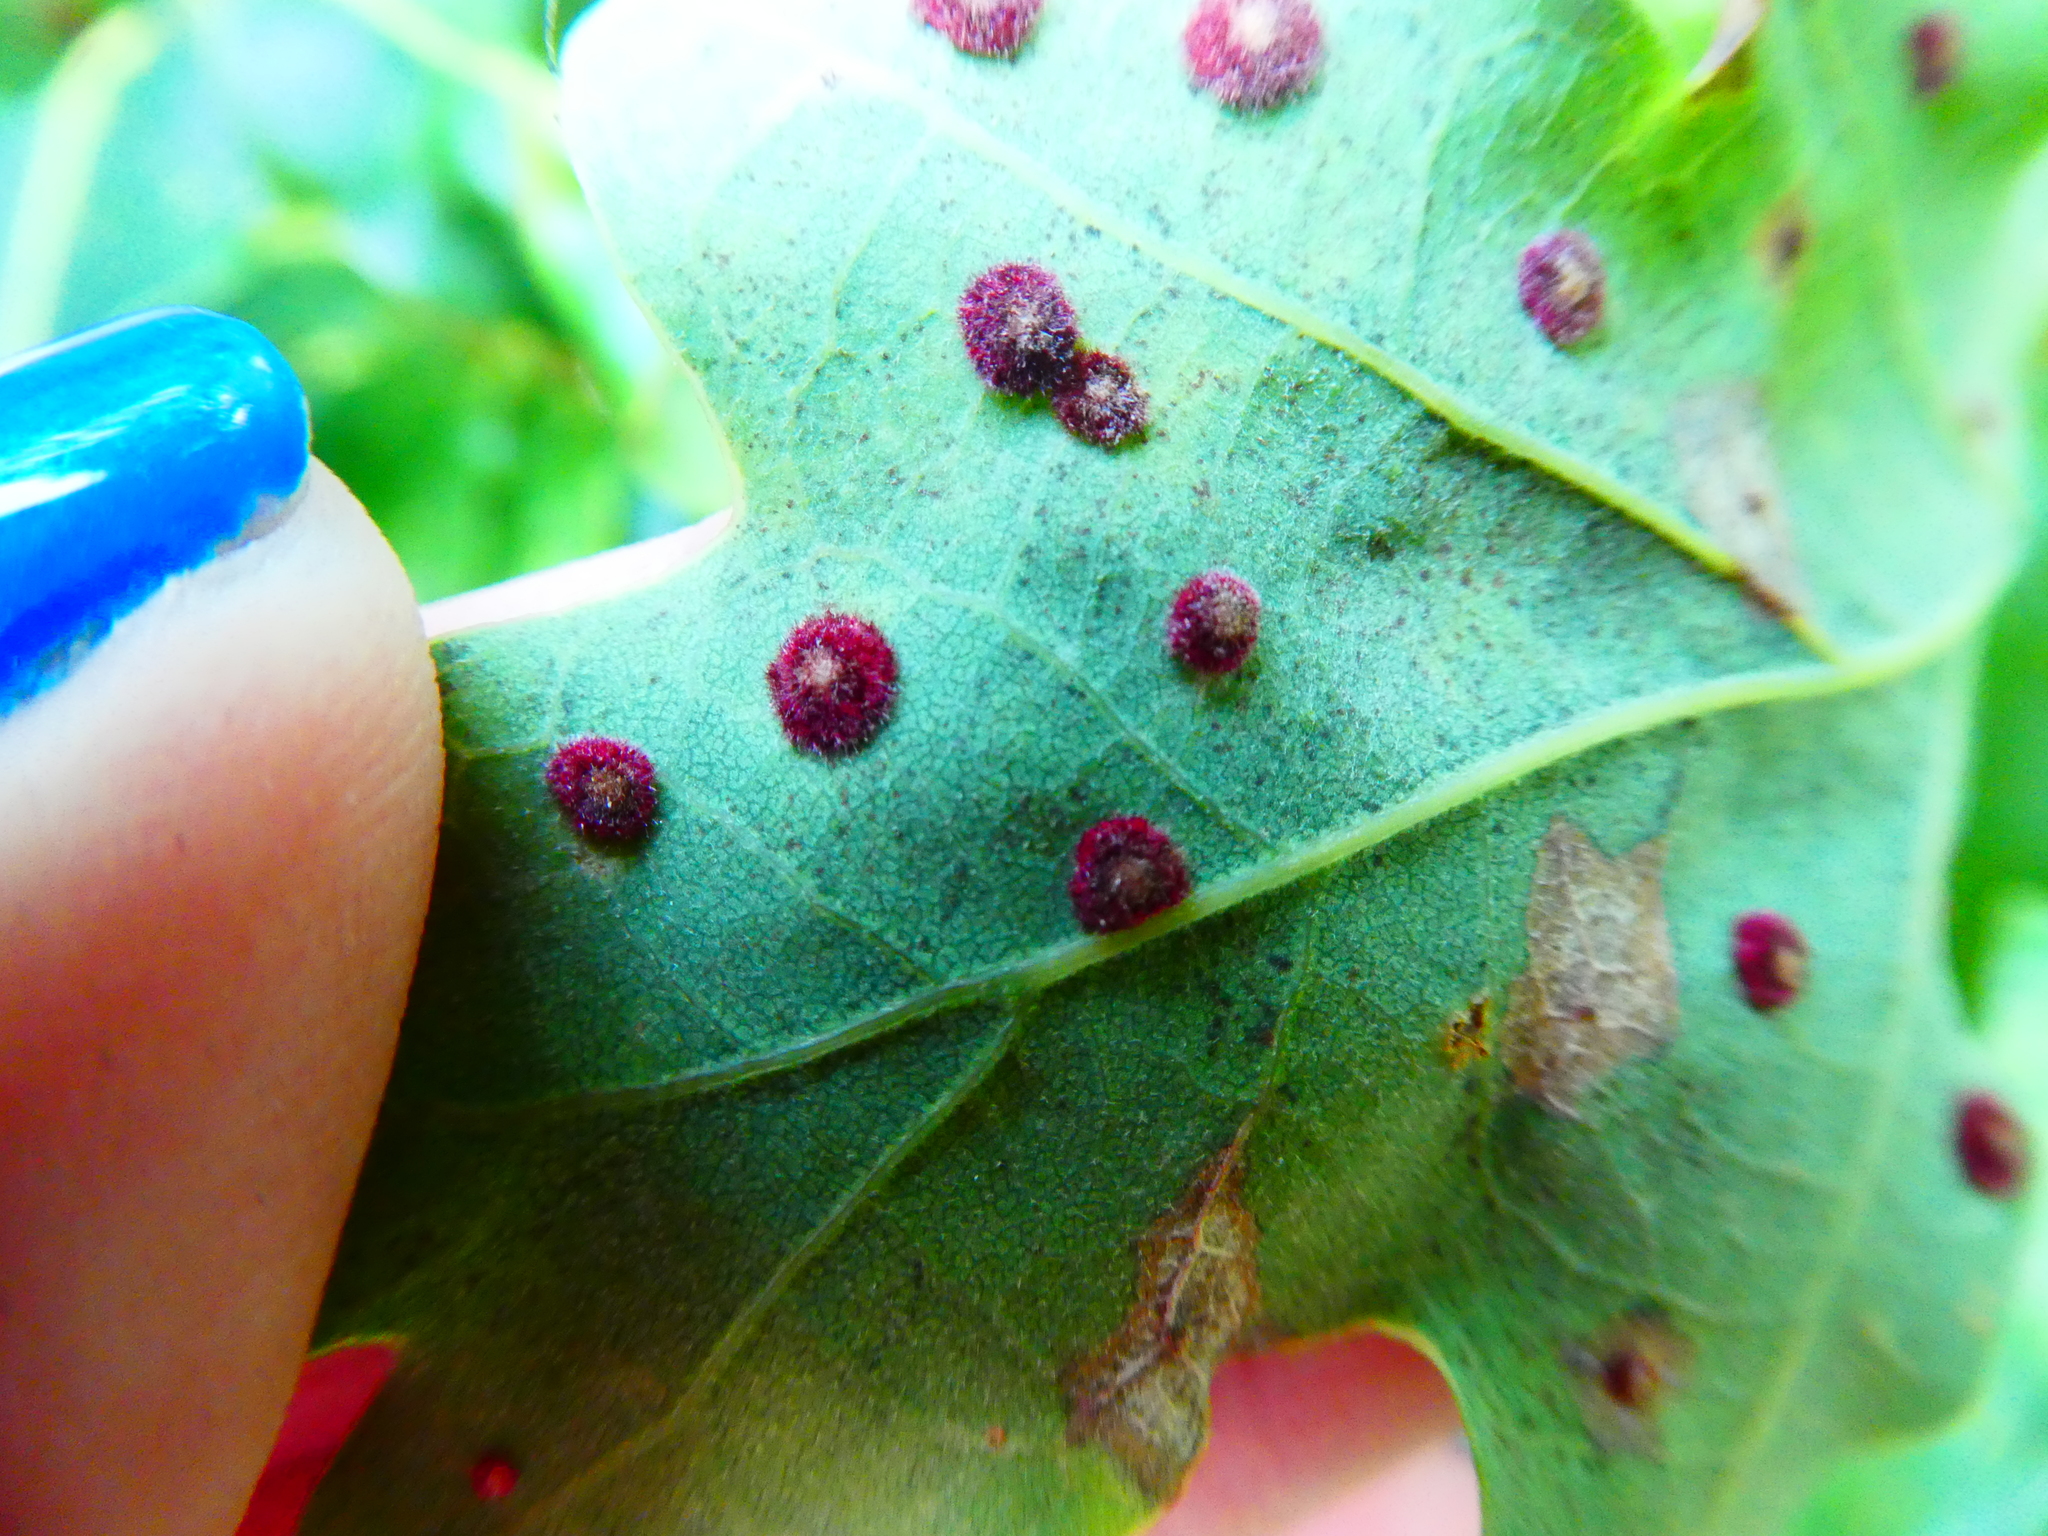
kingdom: Animalia
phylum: Arthropoda
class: Insecta
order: Hymenoptera
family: Cynipidae
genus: Neuroterus
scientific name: Neuroterus quercusbaccarum
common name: Common spangle gall
